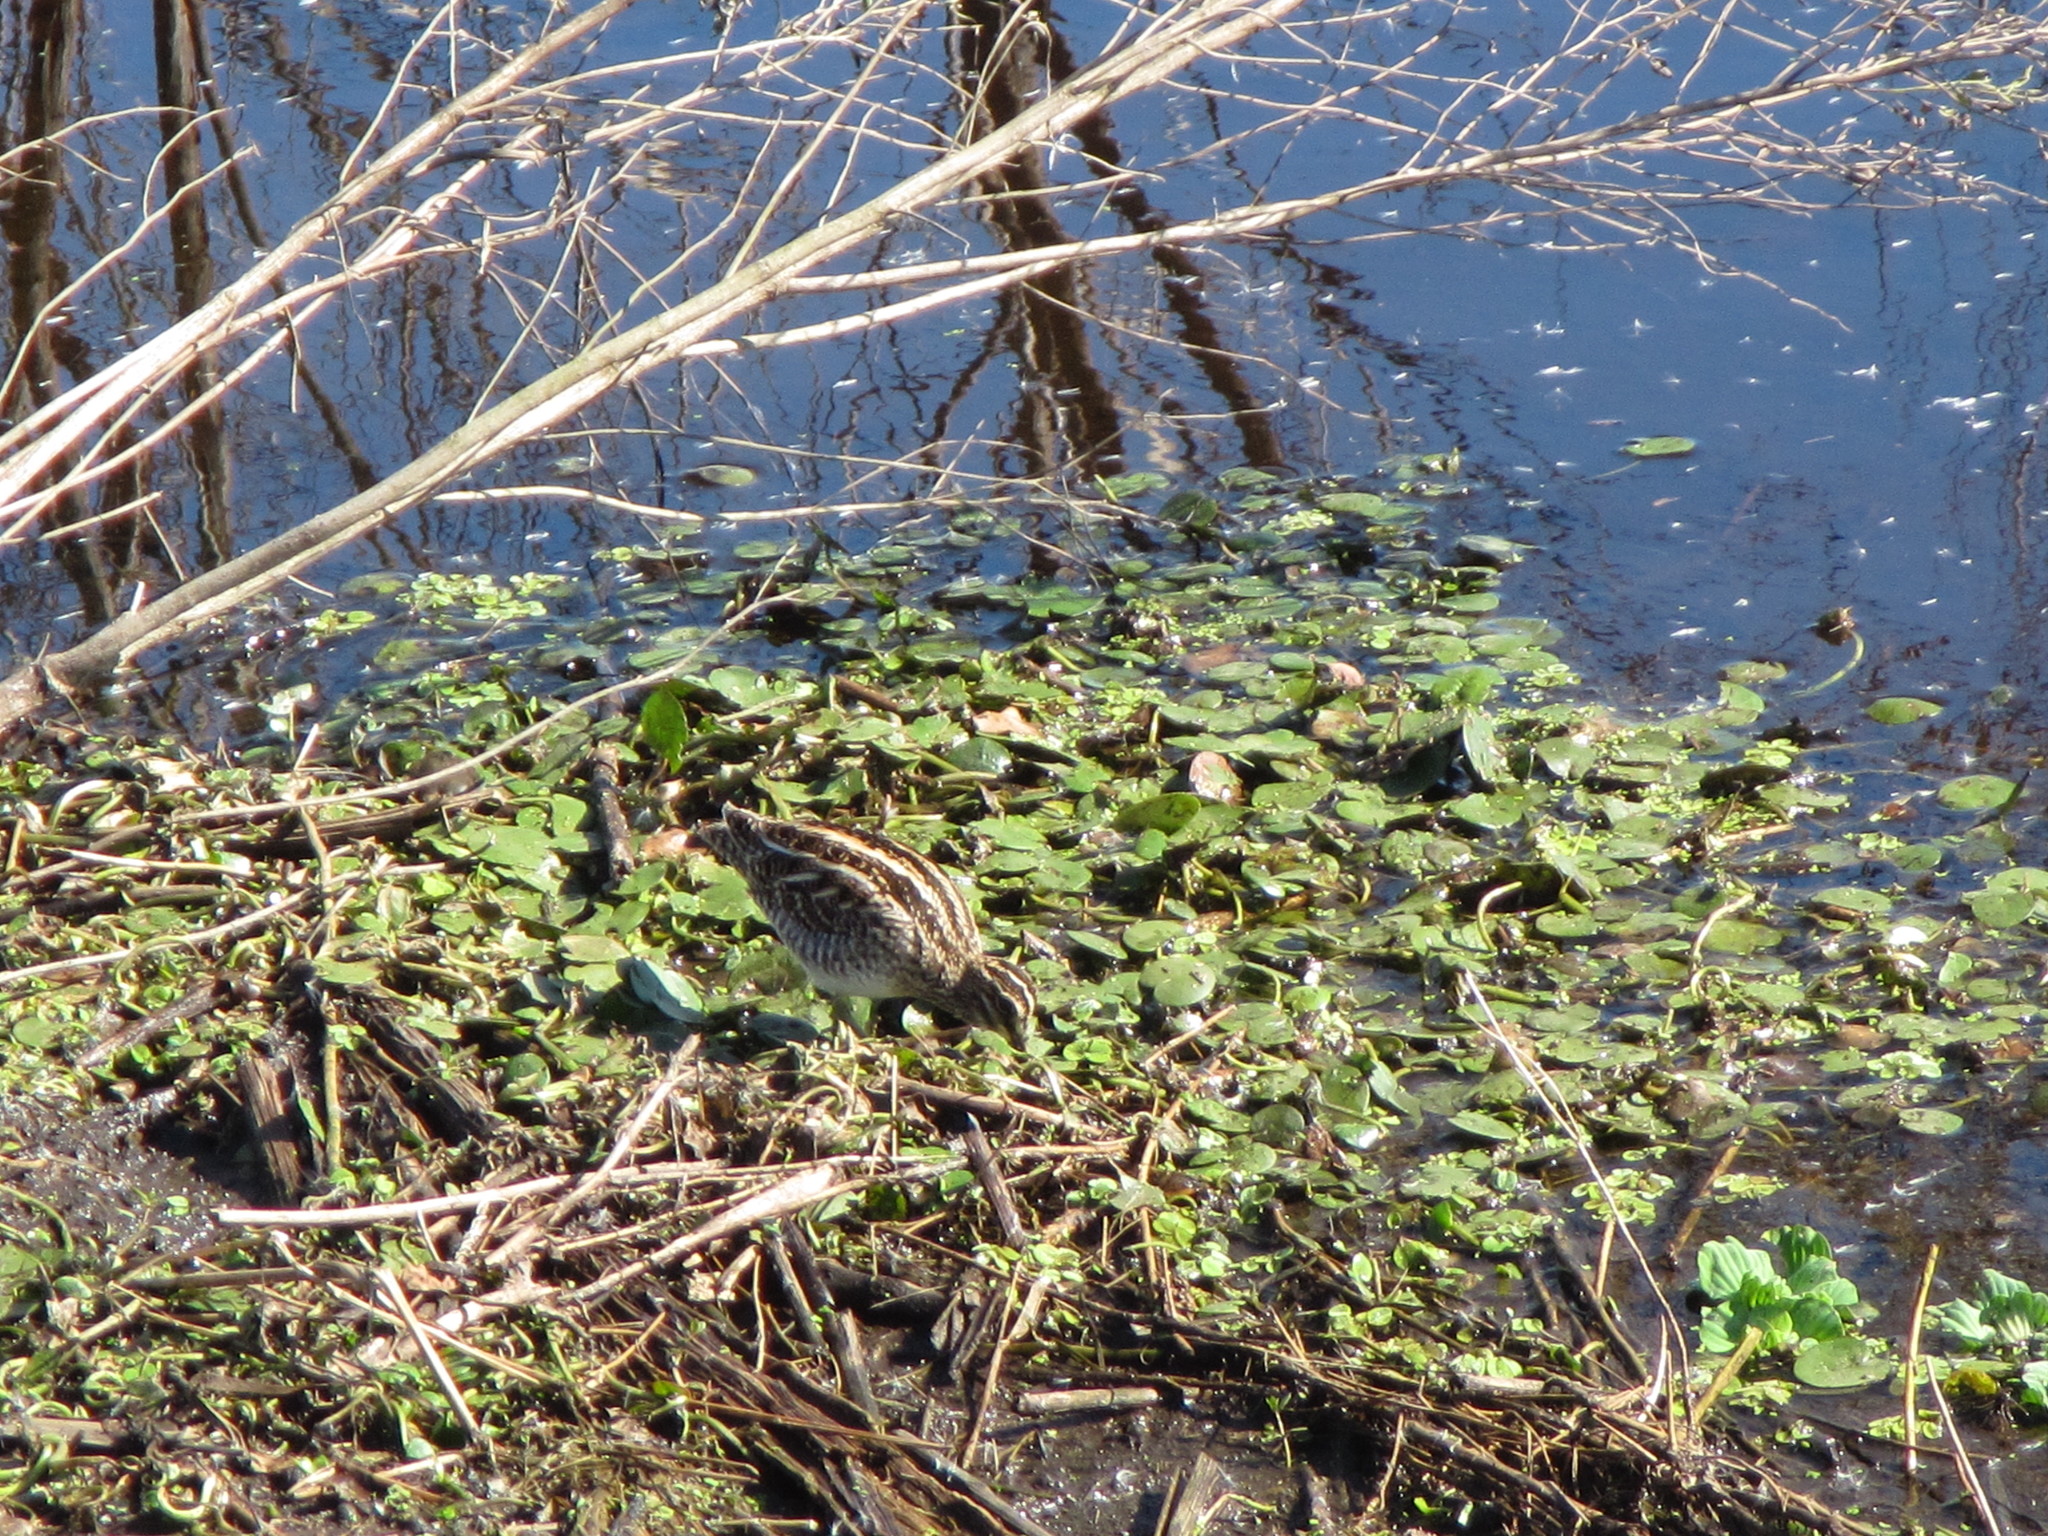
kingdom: Animalia
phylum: Chordata
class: Aves
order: Charadriiformes
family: Scolopacidae
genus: Gallinago
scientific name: Gallinago delicata
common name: Wilson's snipe
